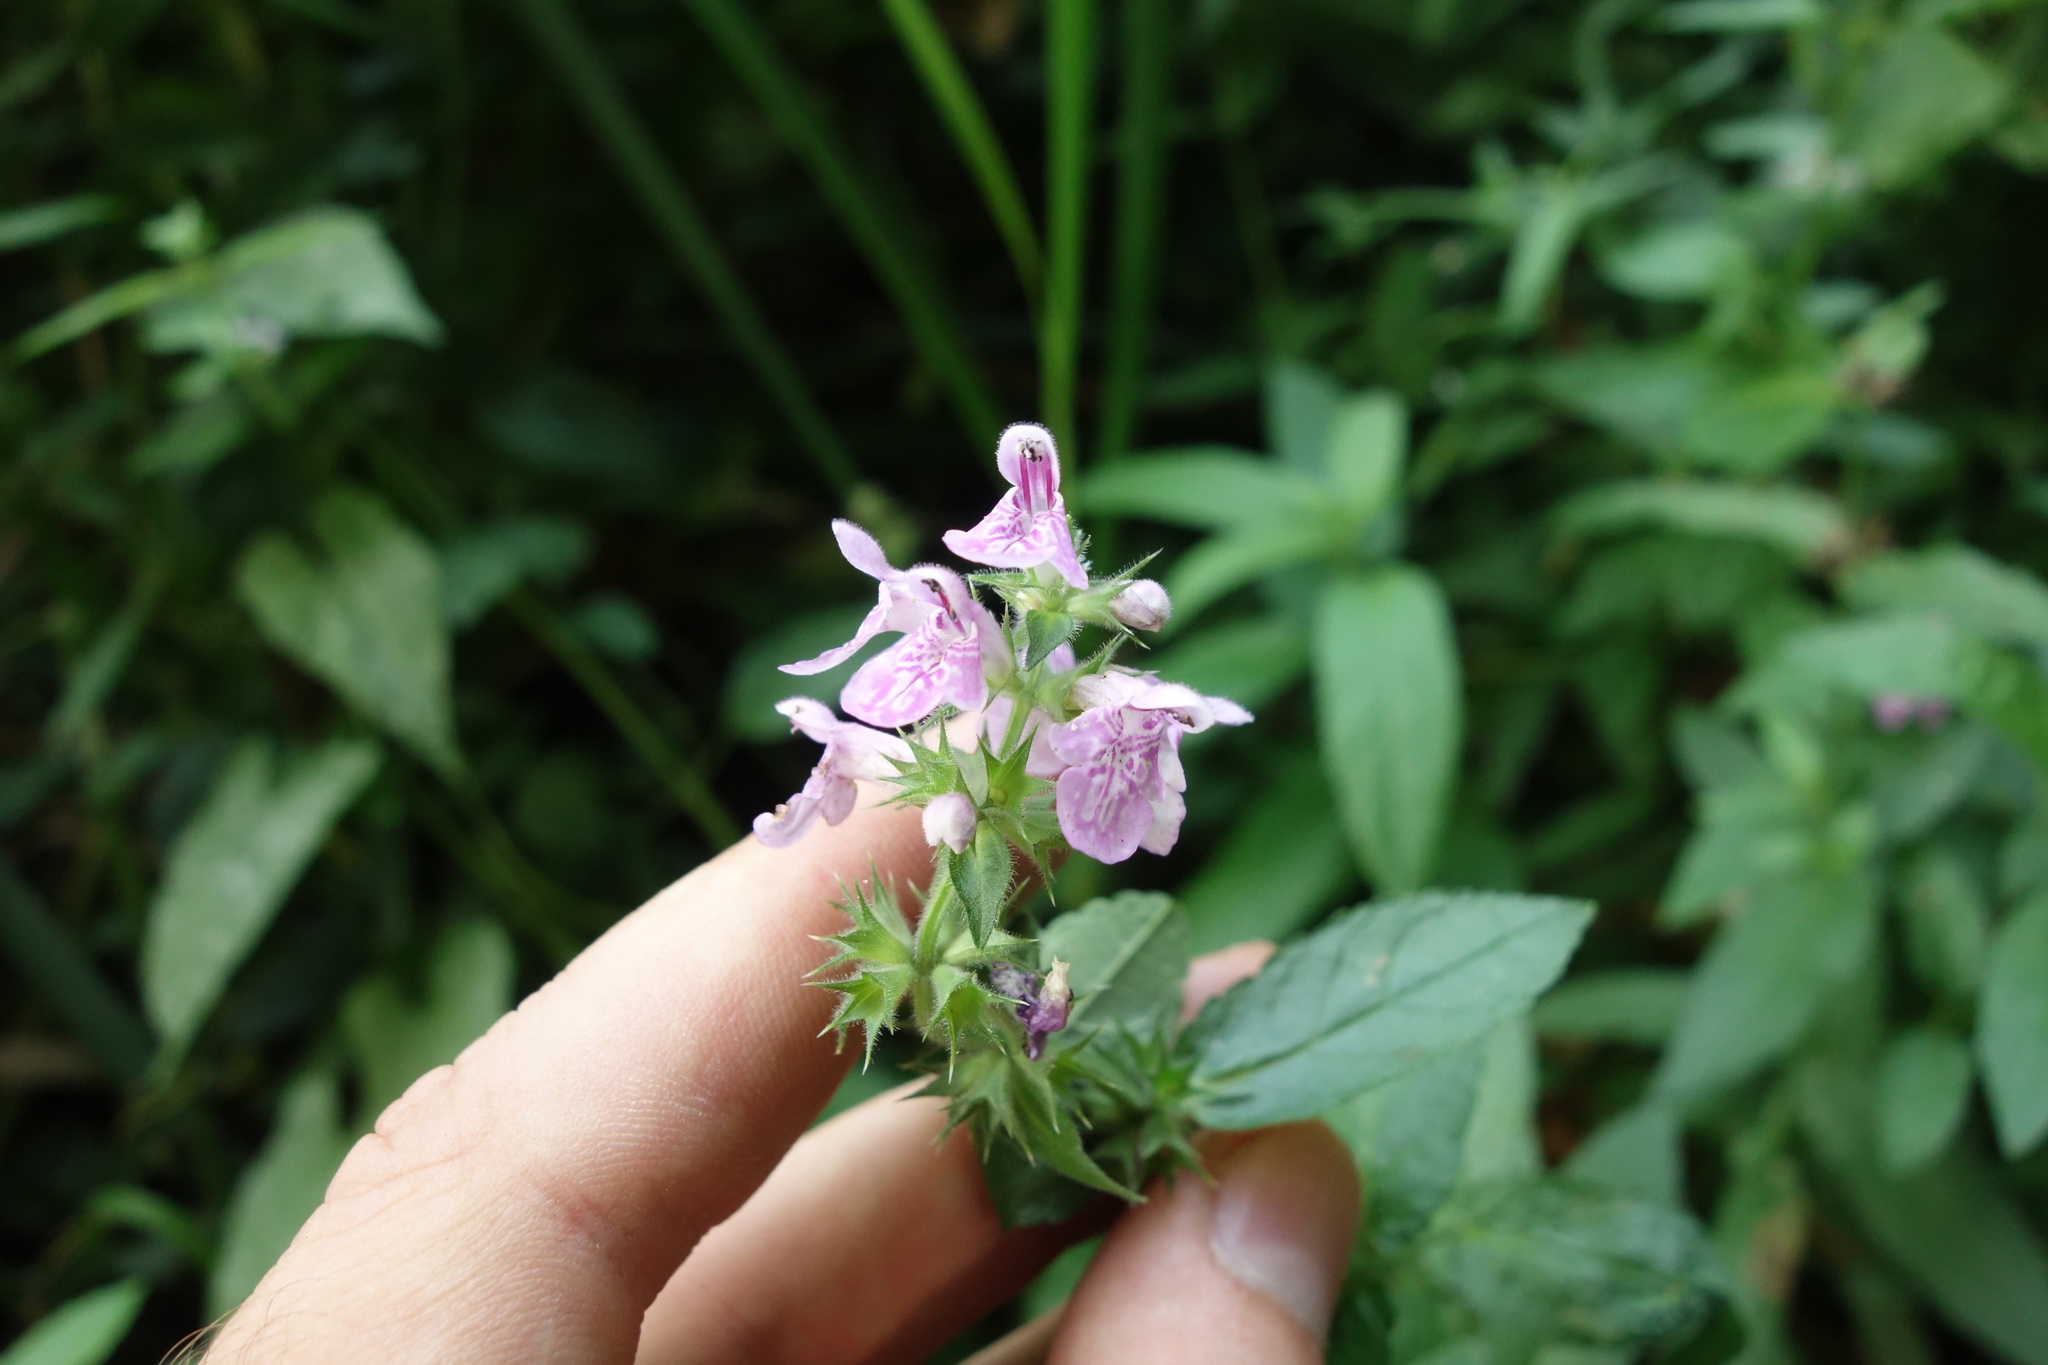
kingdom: Plantae
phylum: Tracheophyta
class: Magnoliopsida
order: Lamiales
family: Lamiaceae
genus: Stachys
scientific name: Stachys palustris
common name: Marsh woundwort
